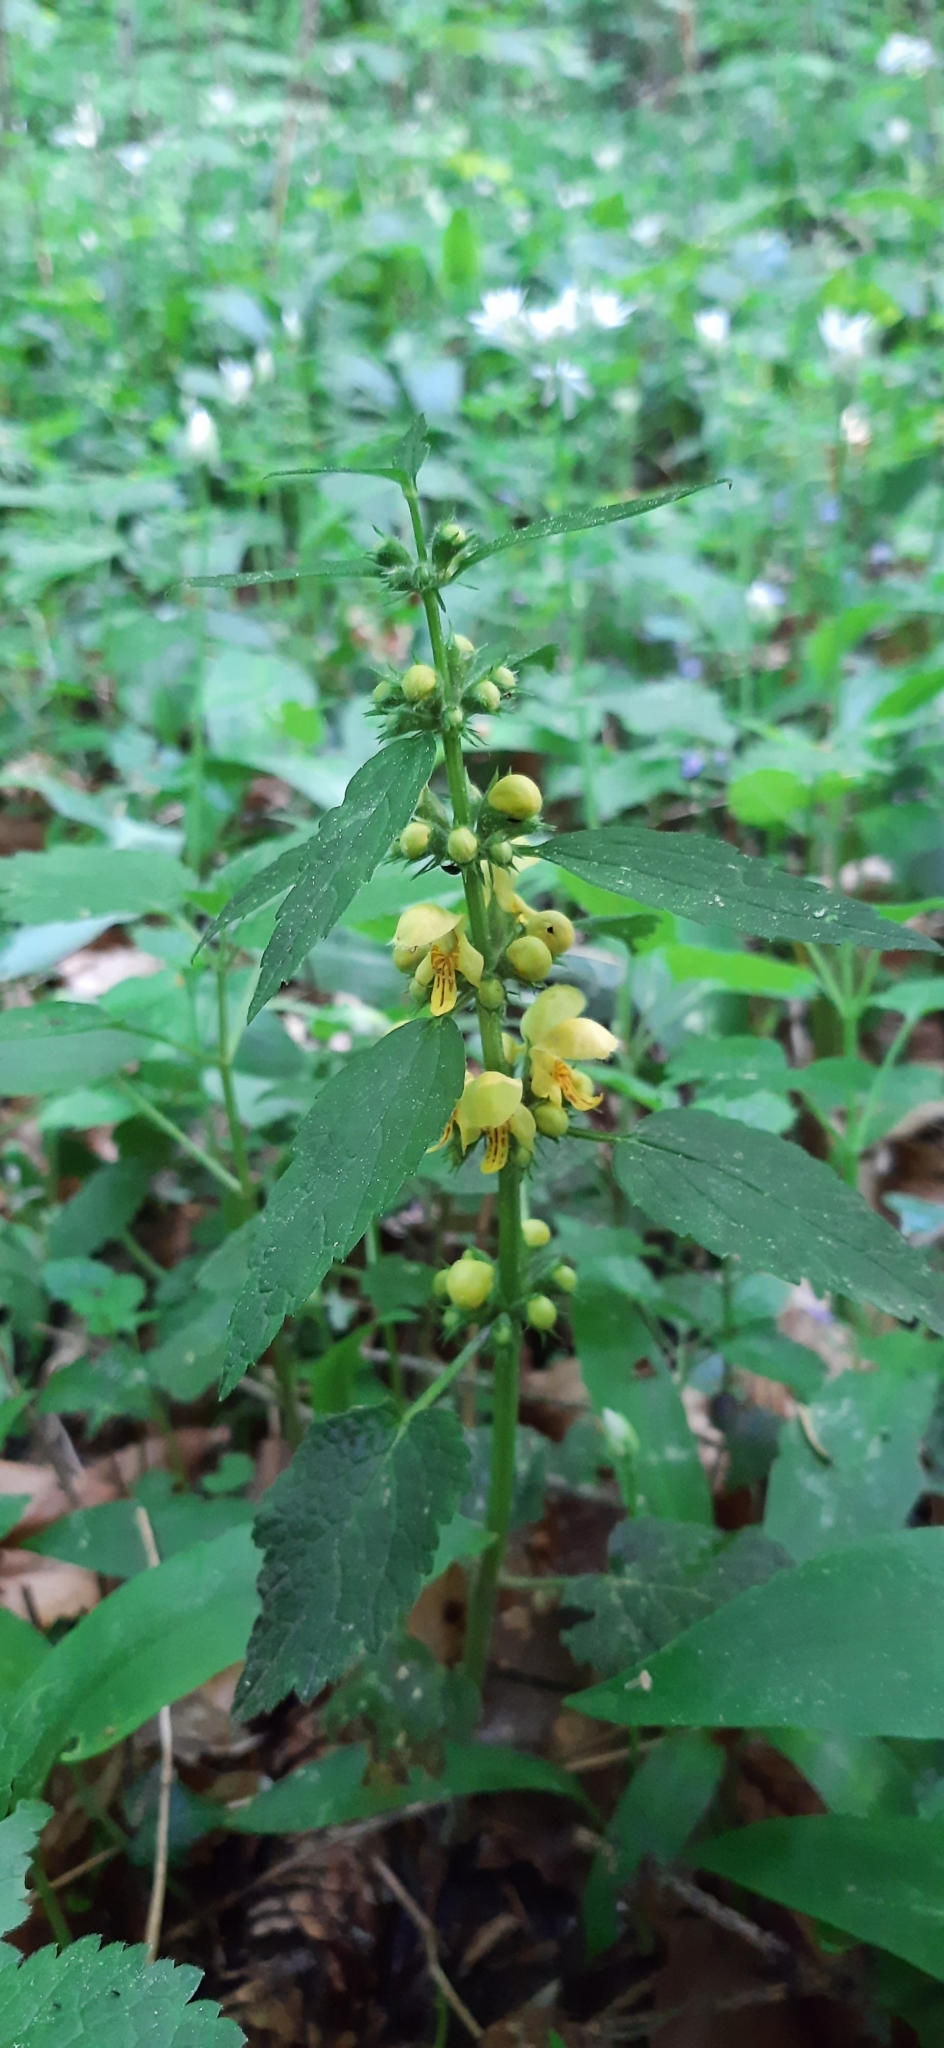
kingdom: Plantae
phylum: Tracheophyta
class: Magnoliopsida
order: Lamiales
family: Lamiaceae
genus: Lamium
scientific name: Lamium galeobdolon
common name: Yellow archangel
